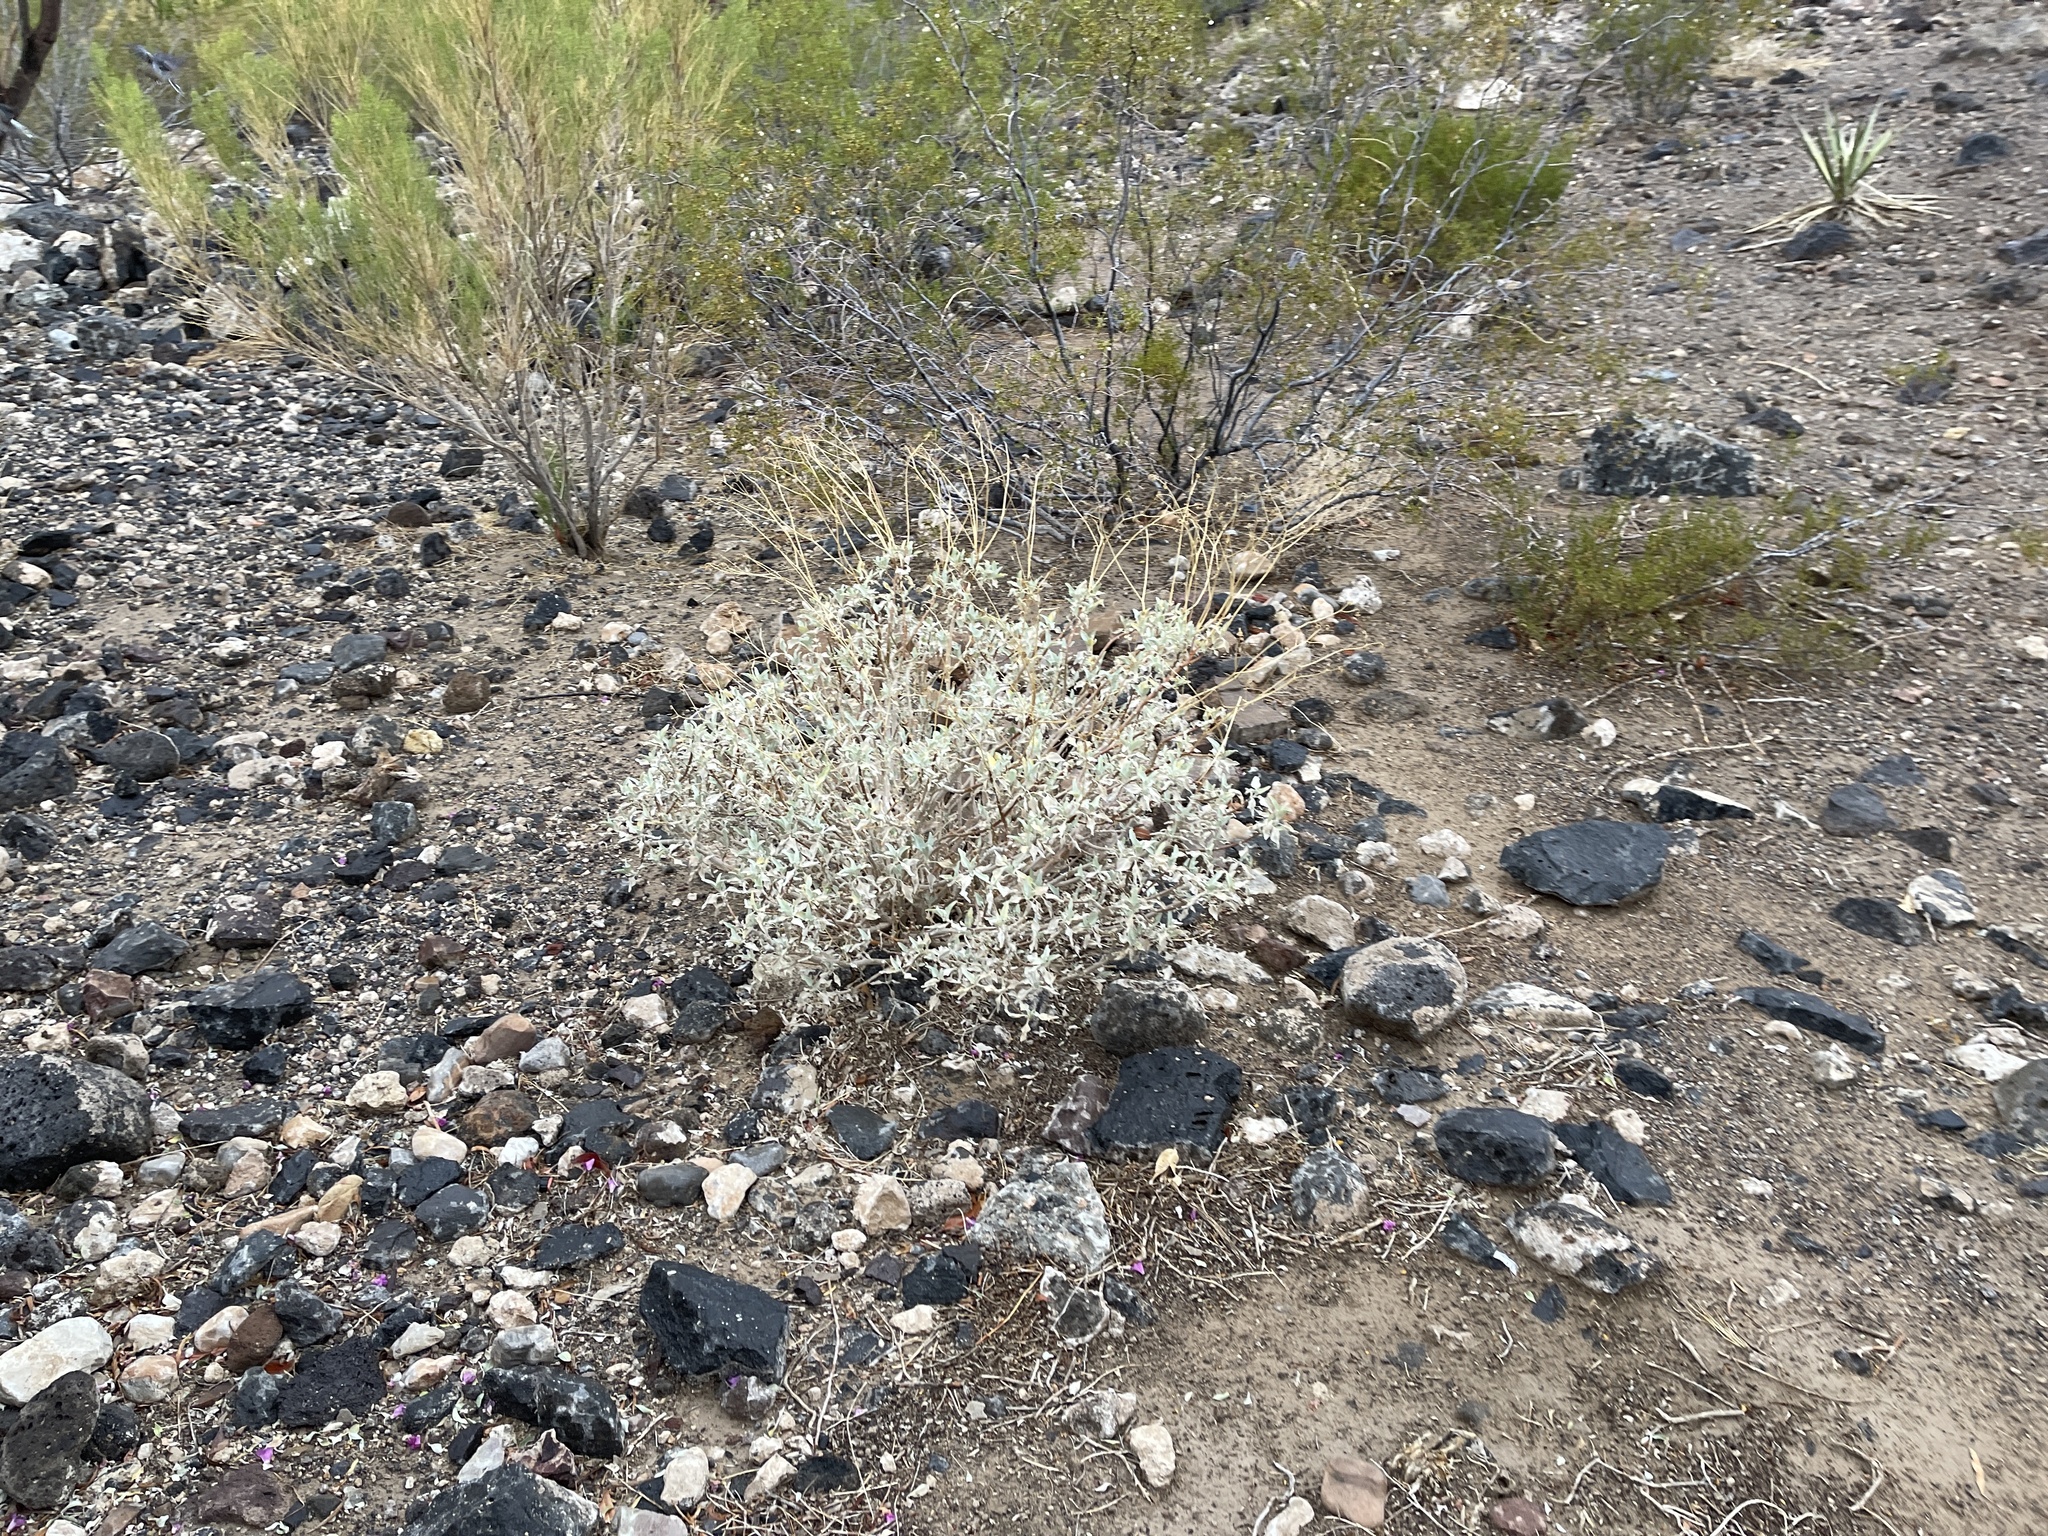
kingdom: Plantae
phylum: Tracheophyta
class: Magnoliopsida
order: Asterales
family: Asteraceae
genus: Encelia
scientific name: Encelia farinosa
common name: Brittlebush
